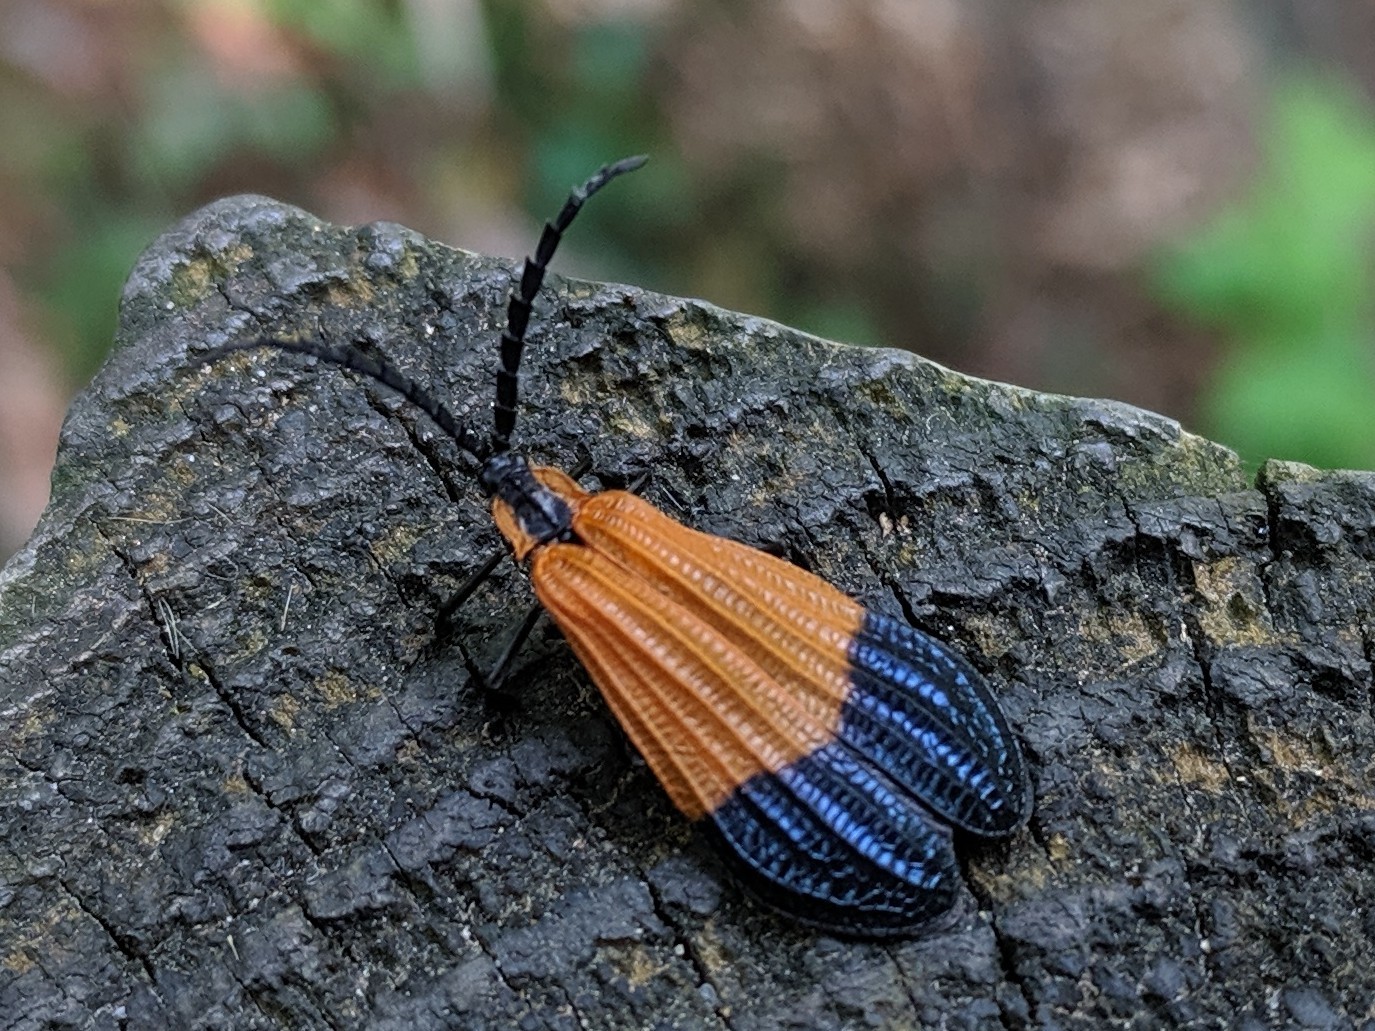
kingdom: Animalia
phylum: Arthropoda
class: Insecta
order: Coleoptera
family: Lycidae
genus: Calopteron
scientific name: Calopteron terminale
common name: End band net-winged beetle
